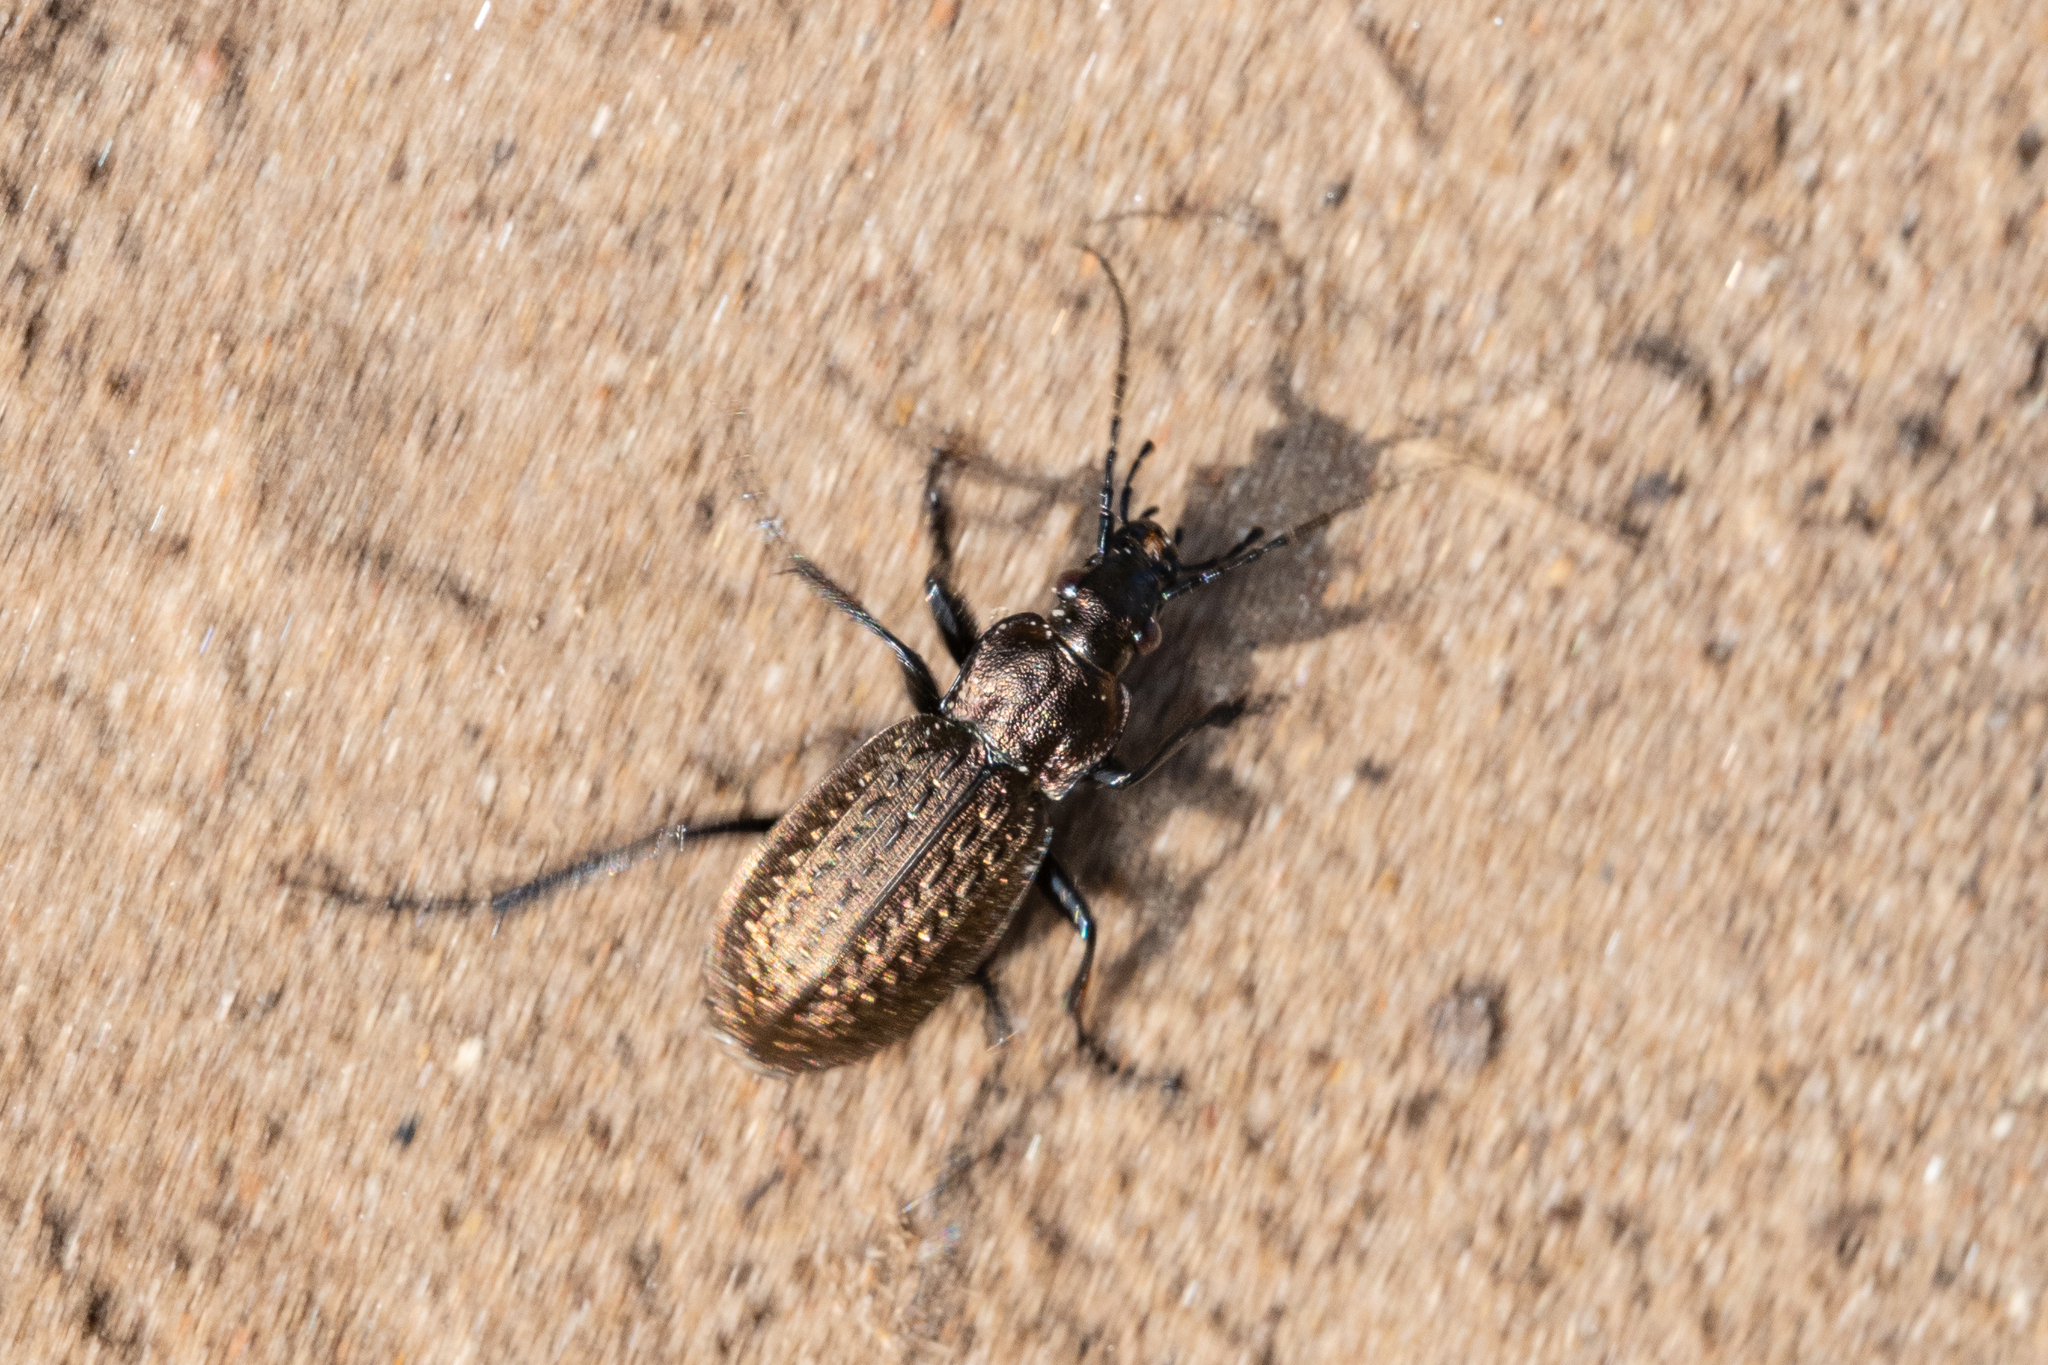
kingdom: Animalia
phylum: Arthropoda
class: Insecta
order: Coleoptera
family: Carabidae
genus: Carabus
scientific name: Carabus granulatus
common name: Granulate ground beetle
